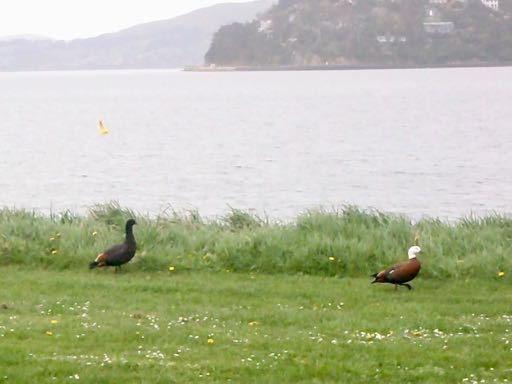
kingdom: Animalia
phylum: Chordata
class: Aves
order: Anseriformes
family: Anatidae
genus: Tadorna
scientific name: Tadorna variegata
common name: Paradise shelduck
